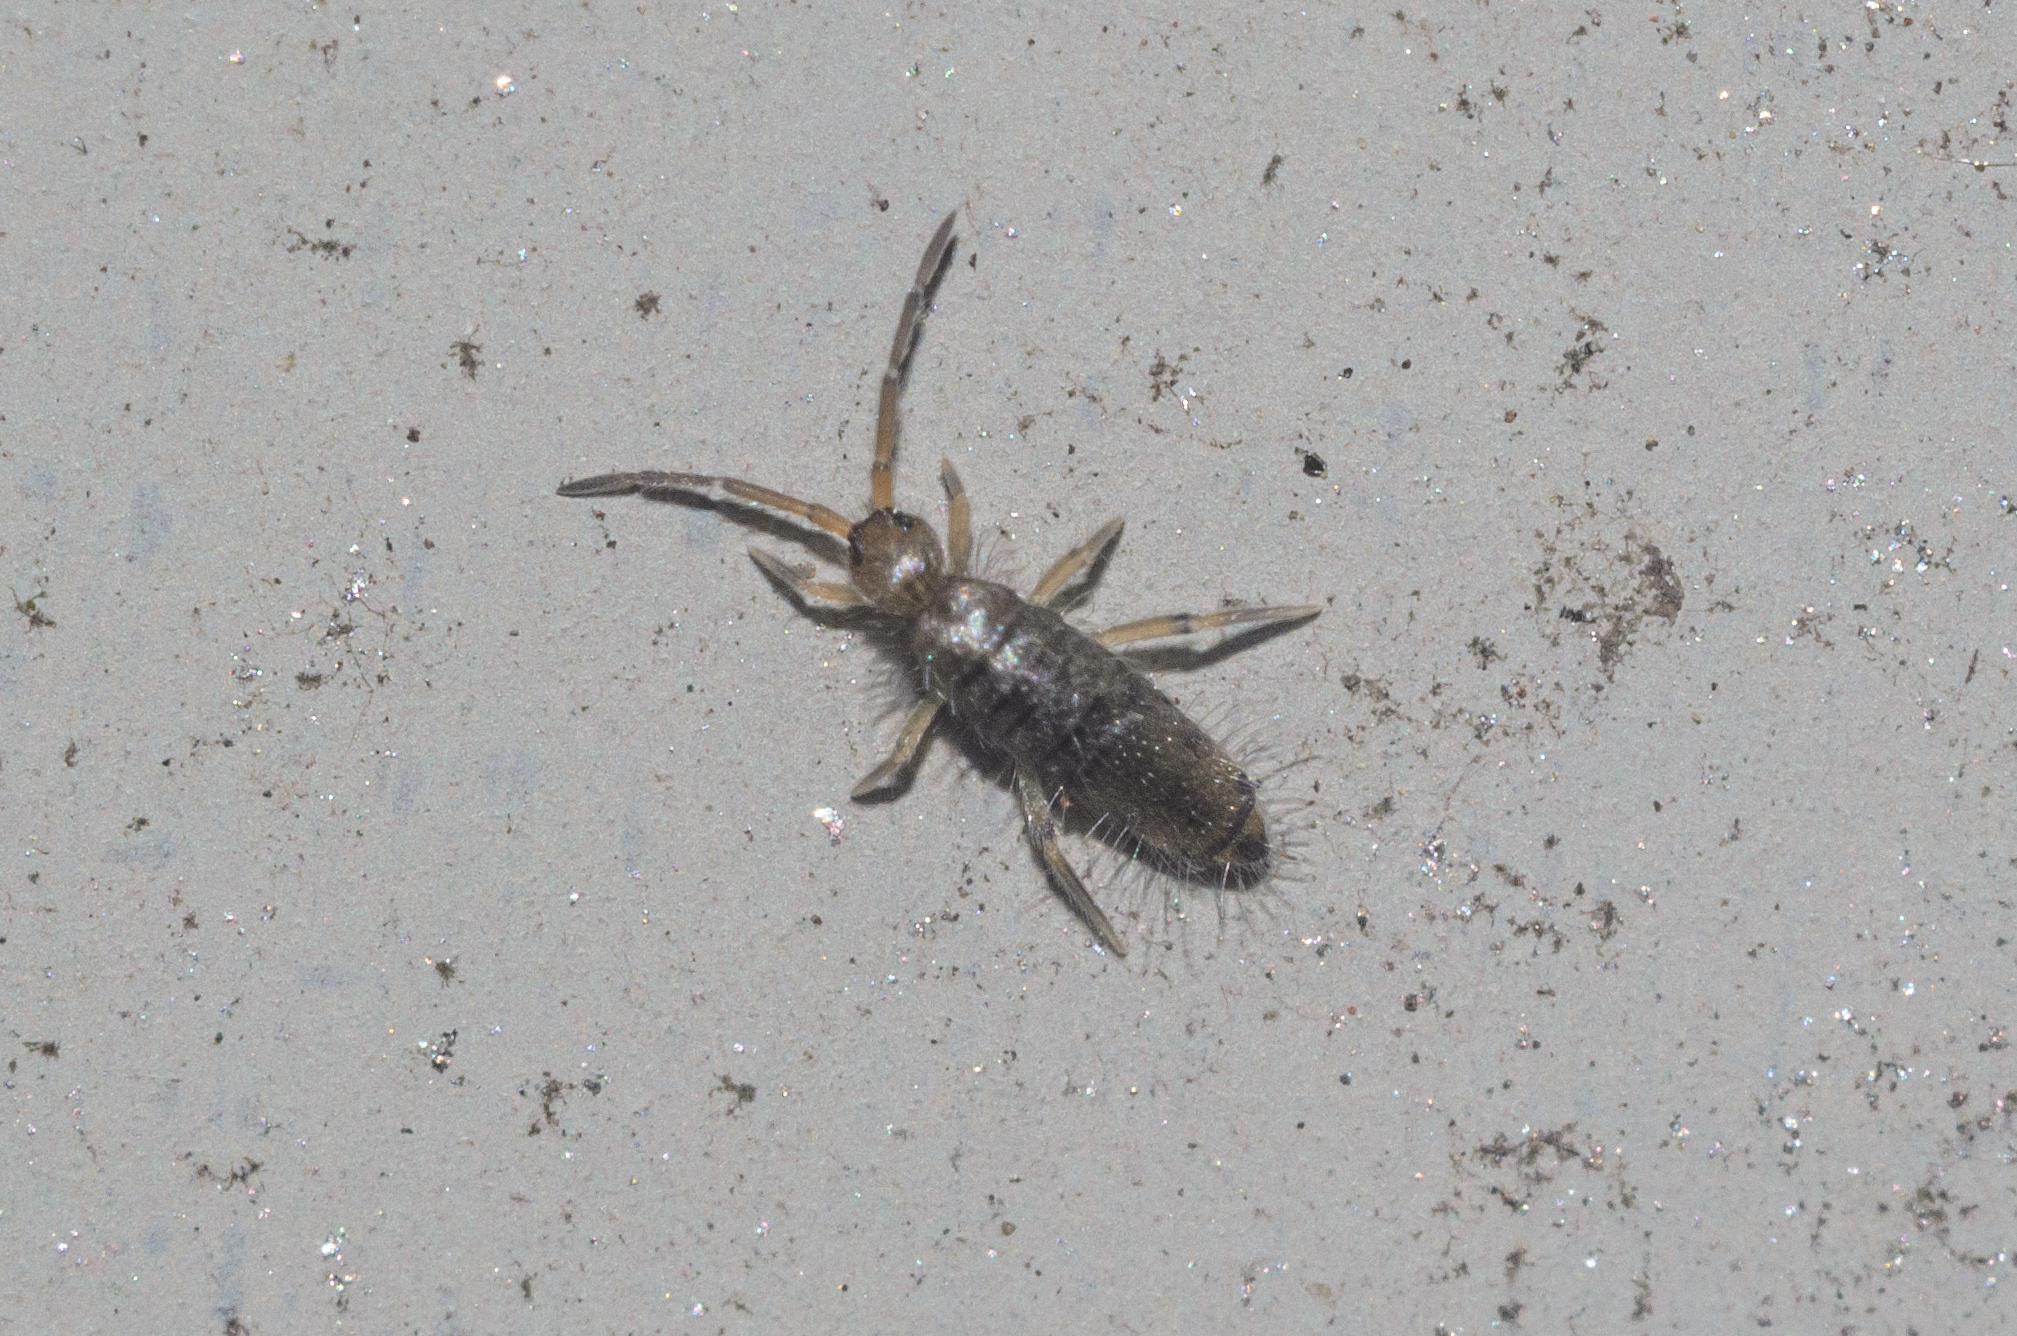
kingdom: Animalia
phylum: Arthropoda
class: Collembola
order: Entomobryomorpha
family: Entomobryidae
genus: Willowsia
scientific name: Willowsia nigromaculata
